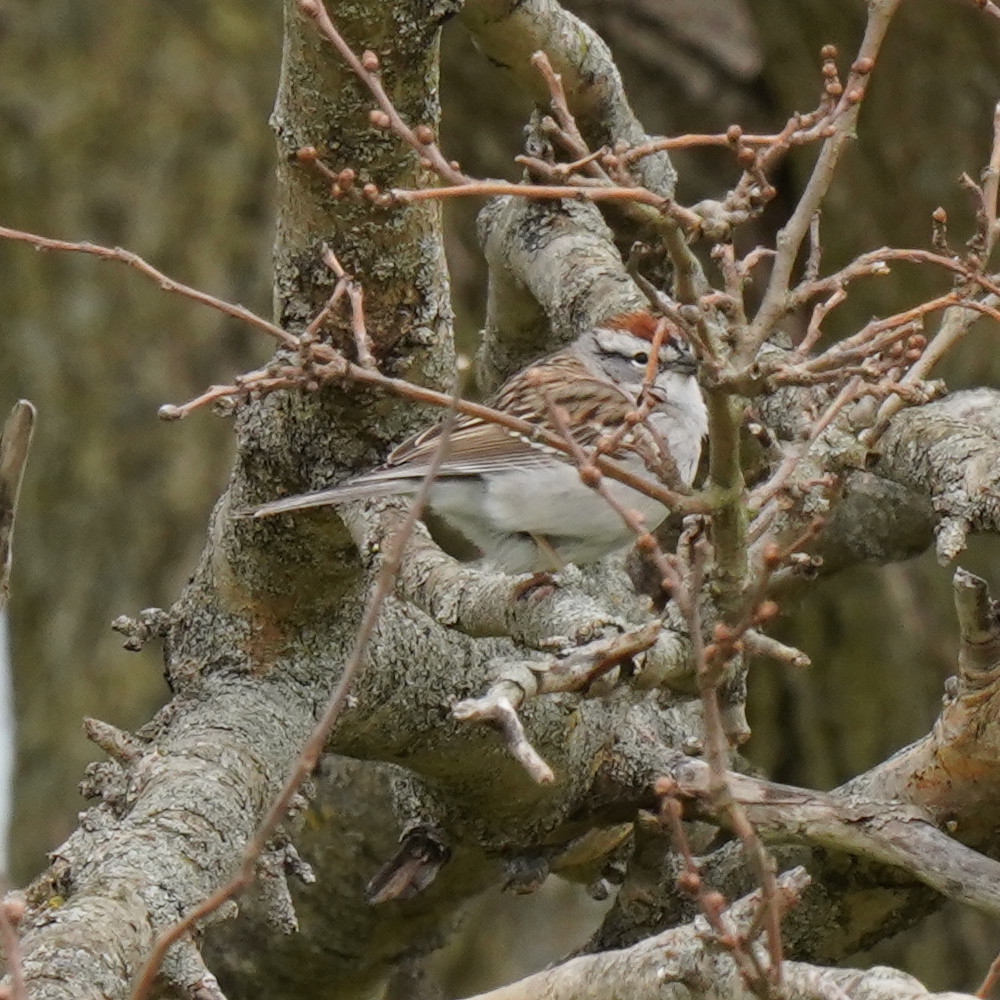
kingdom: Animalia
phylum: Chordata
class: Aves
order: Passeriformes
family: Passerellidae
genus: Spizella
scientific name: Spizella passerina
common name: Chipping sparrow
